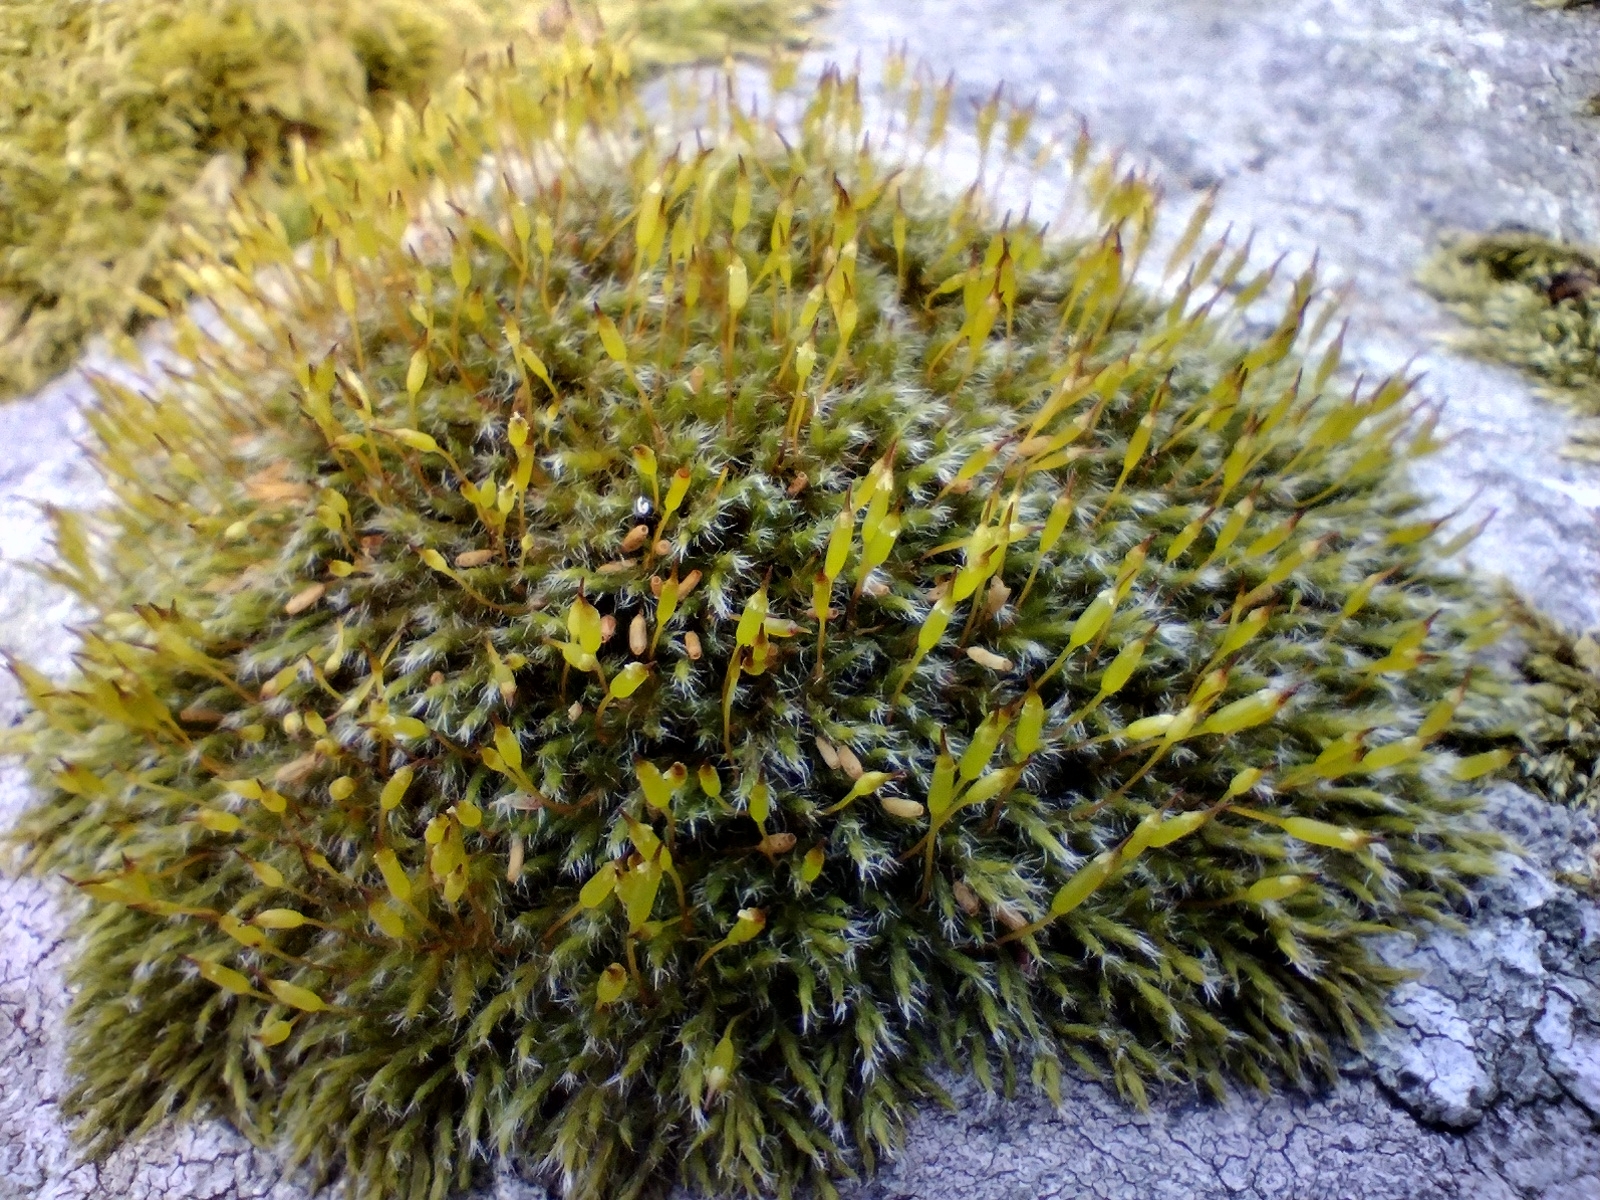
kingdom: Plantae
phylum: Bryophyta
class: Bryopsida
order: Grimmiales
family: Grimmiaceae
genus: Bucklandiella
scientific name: Bucklandiella heterosticha
